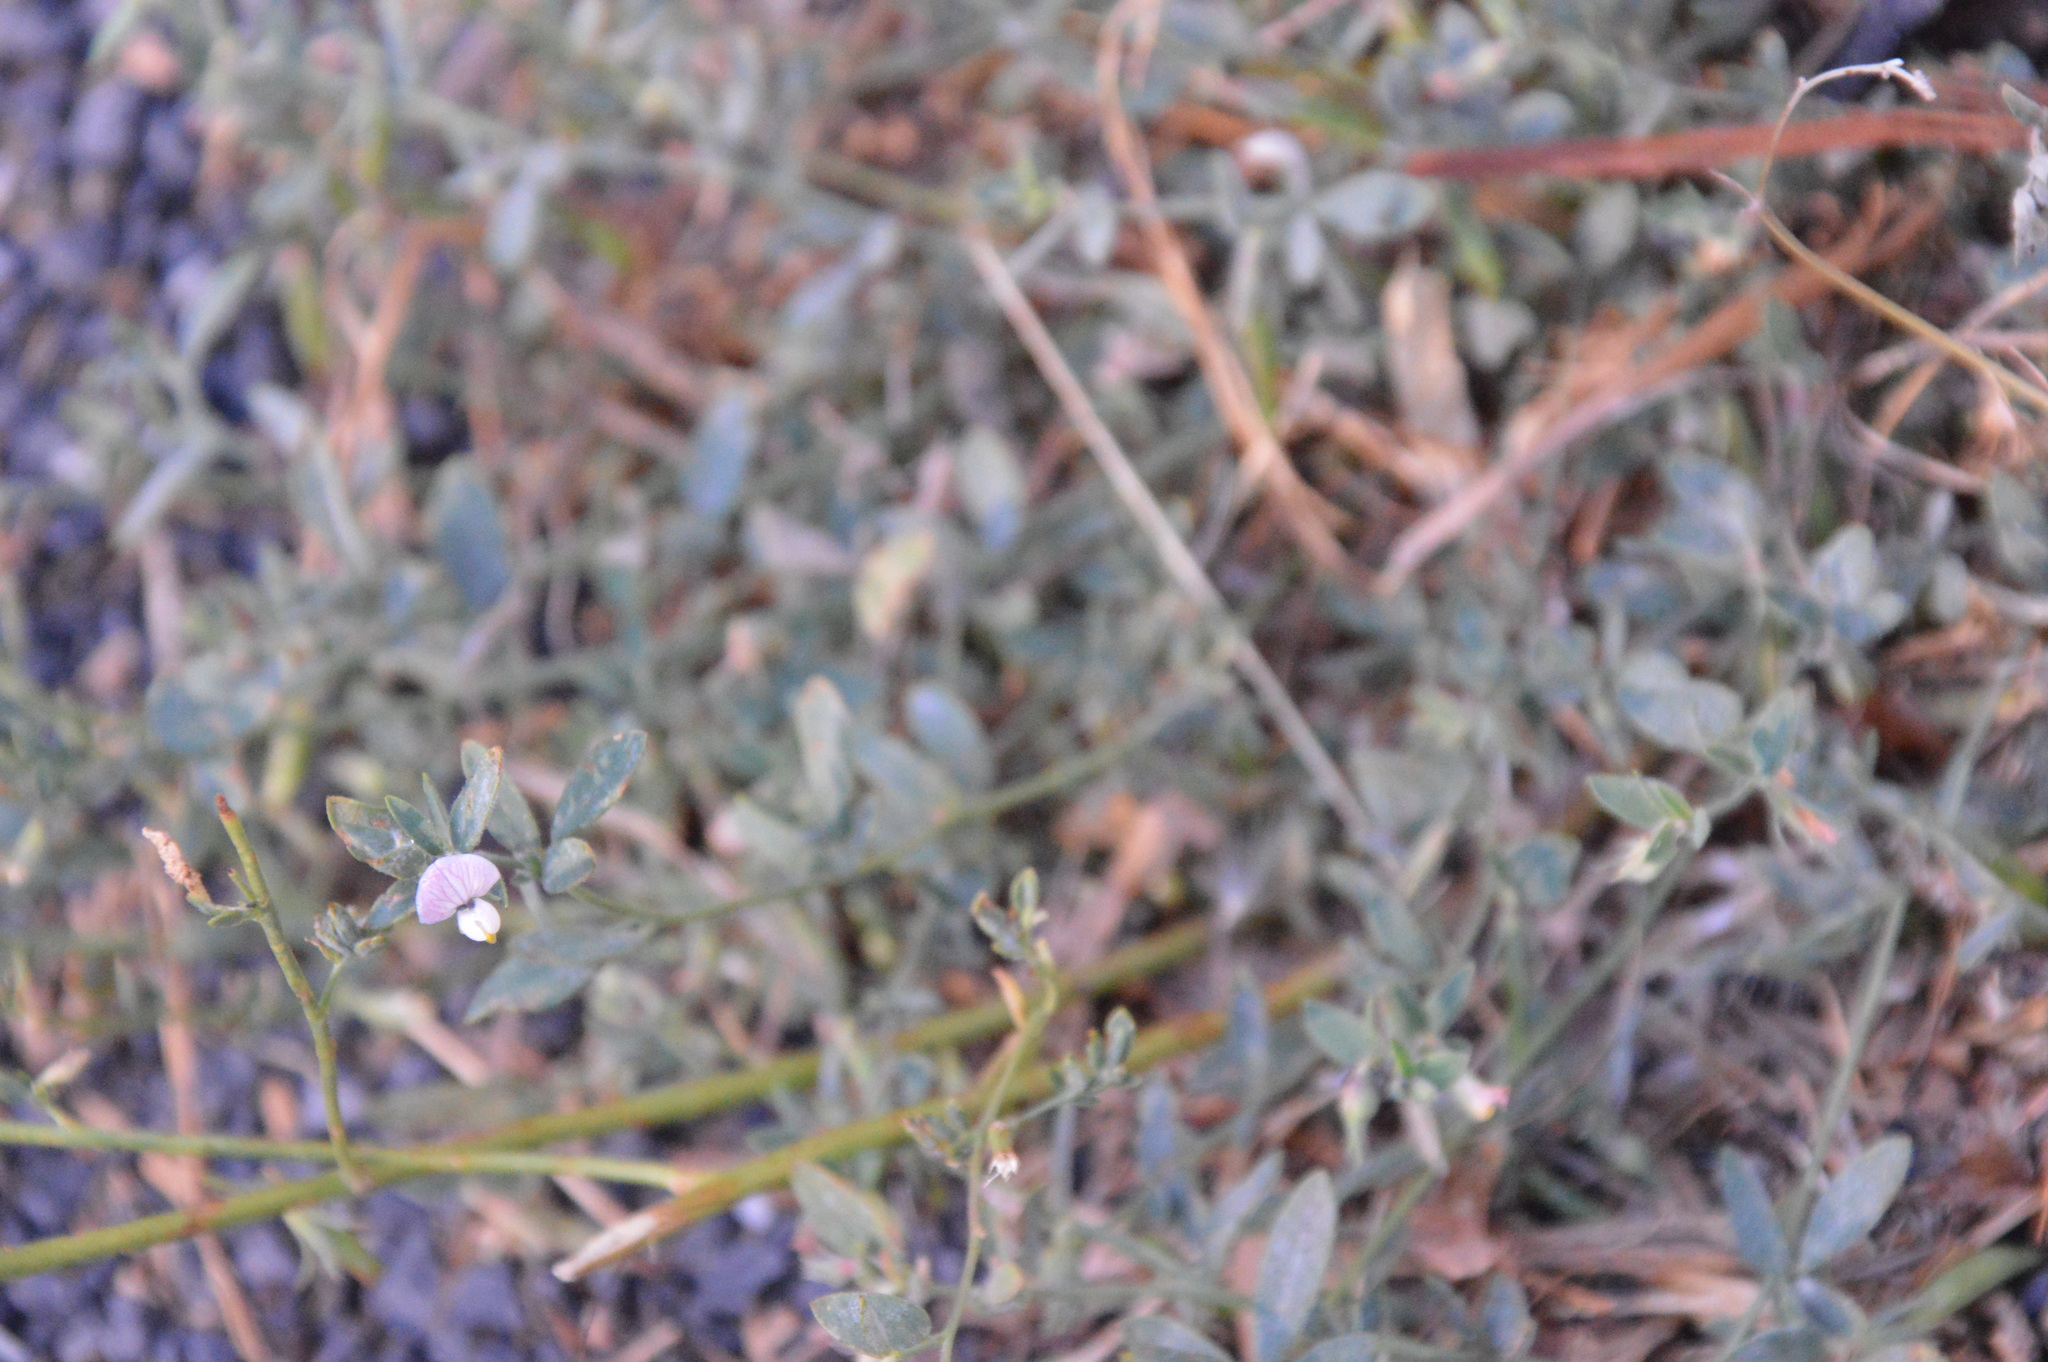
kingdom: Plantae
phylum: Tracheophyta
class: Magnoliopsida
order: Fabales
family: Fabaceae
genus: Acmispon
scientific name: Acmispon americanus
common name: American bird's-foot trefoil
